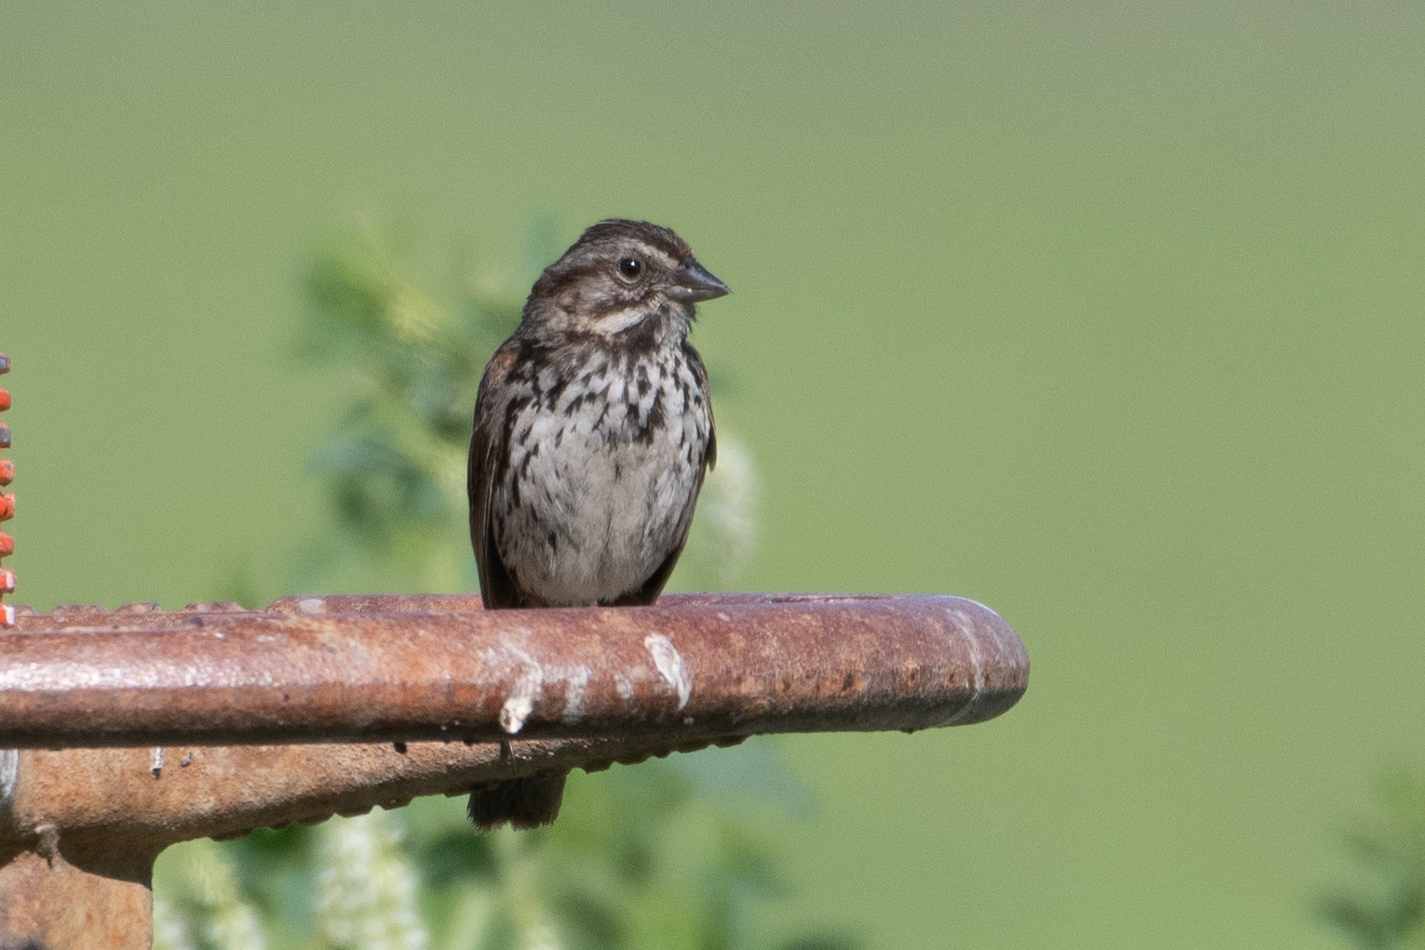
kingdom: Animalia
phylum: Chordata
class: Aves
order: Passeriformes
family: Passerellidae
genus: Melospiza
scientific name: Melospiza melodia
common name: Song sparrow
